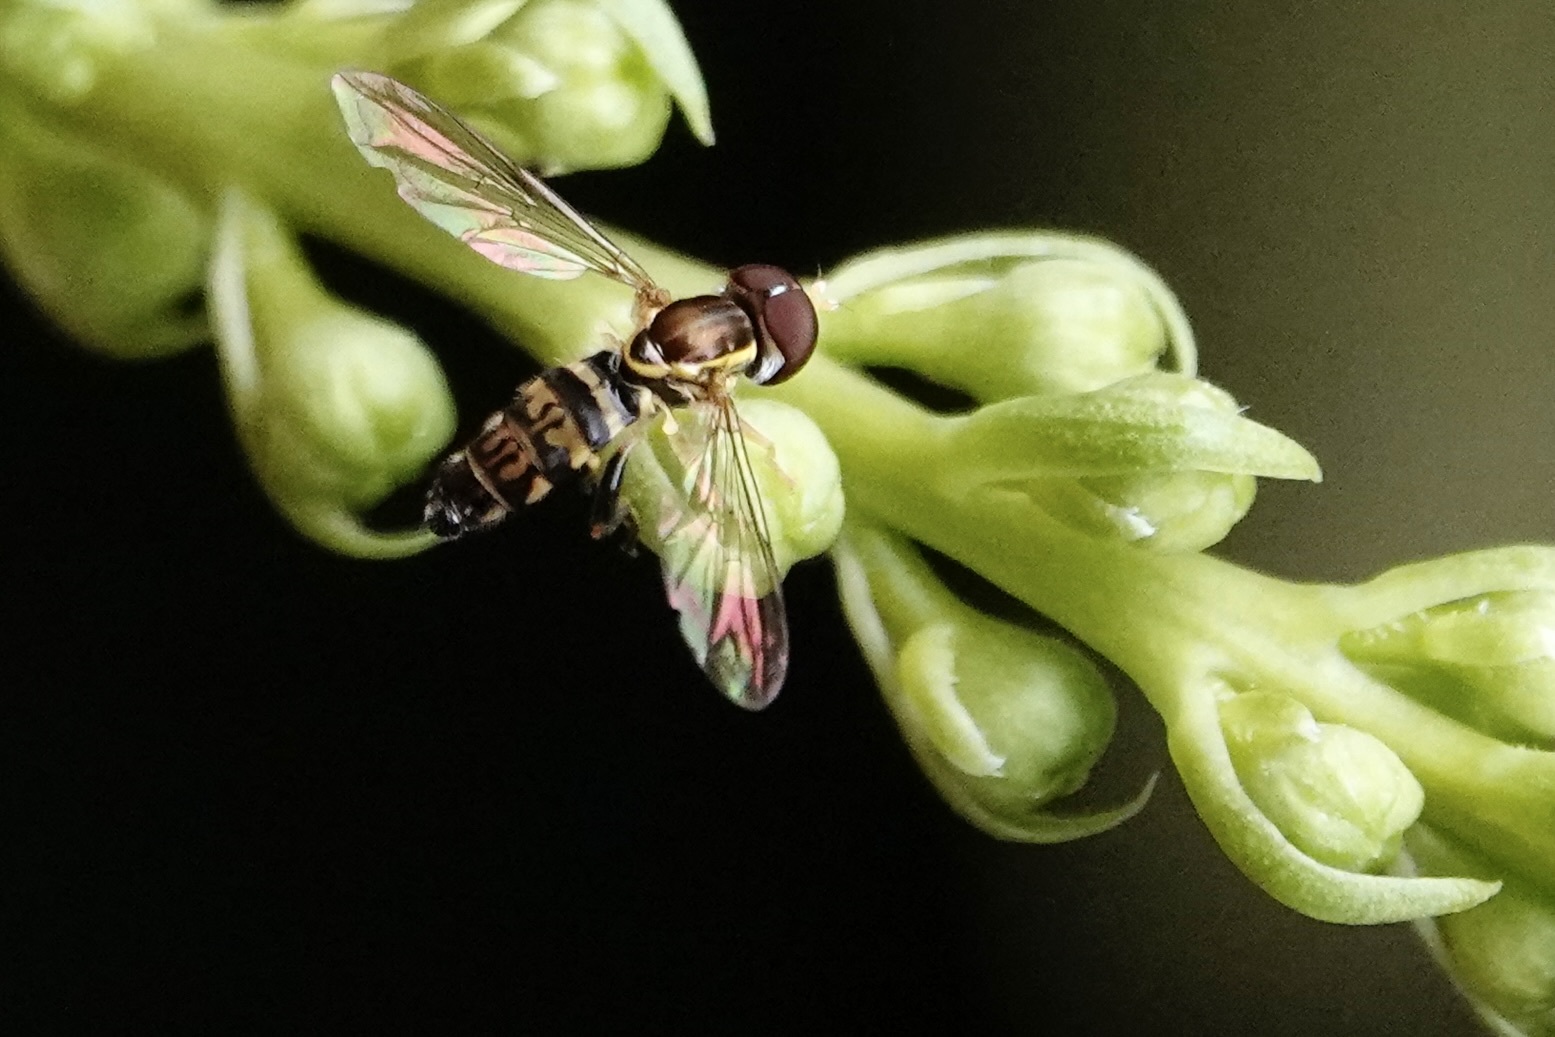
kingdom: Animalia
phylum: Arthropoda
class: Insecta
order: Diptera
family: Syrphidae
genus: Toxomerus
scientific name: Toxomerus geminatus
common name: Eastern calligrapher
